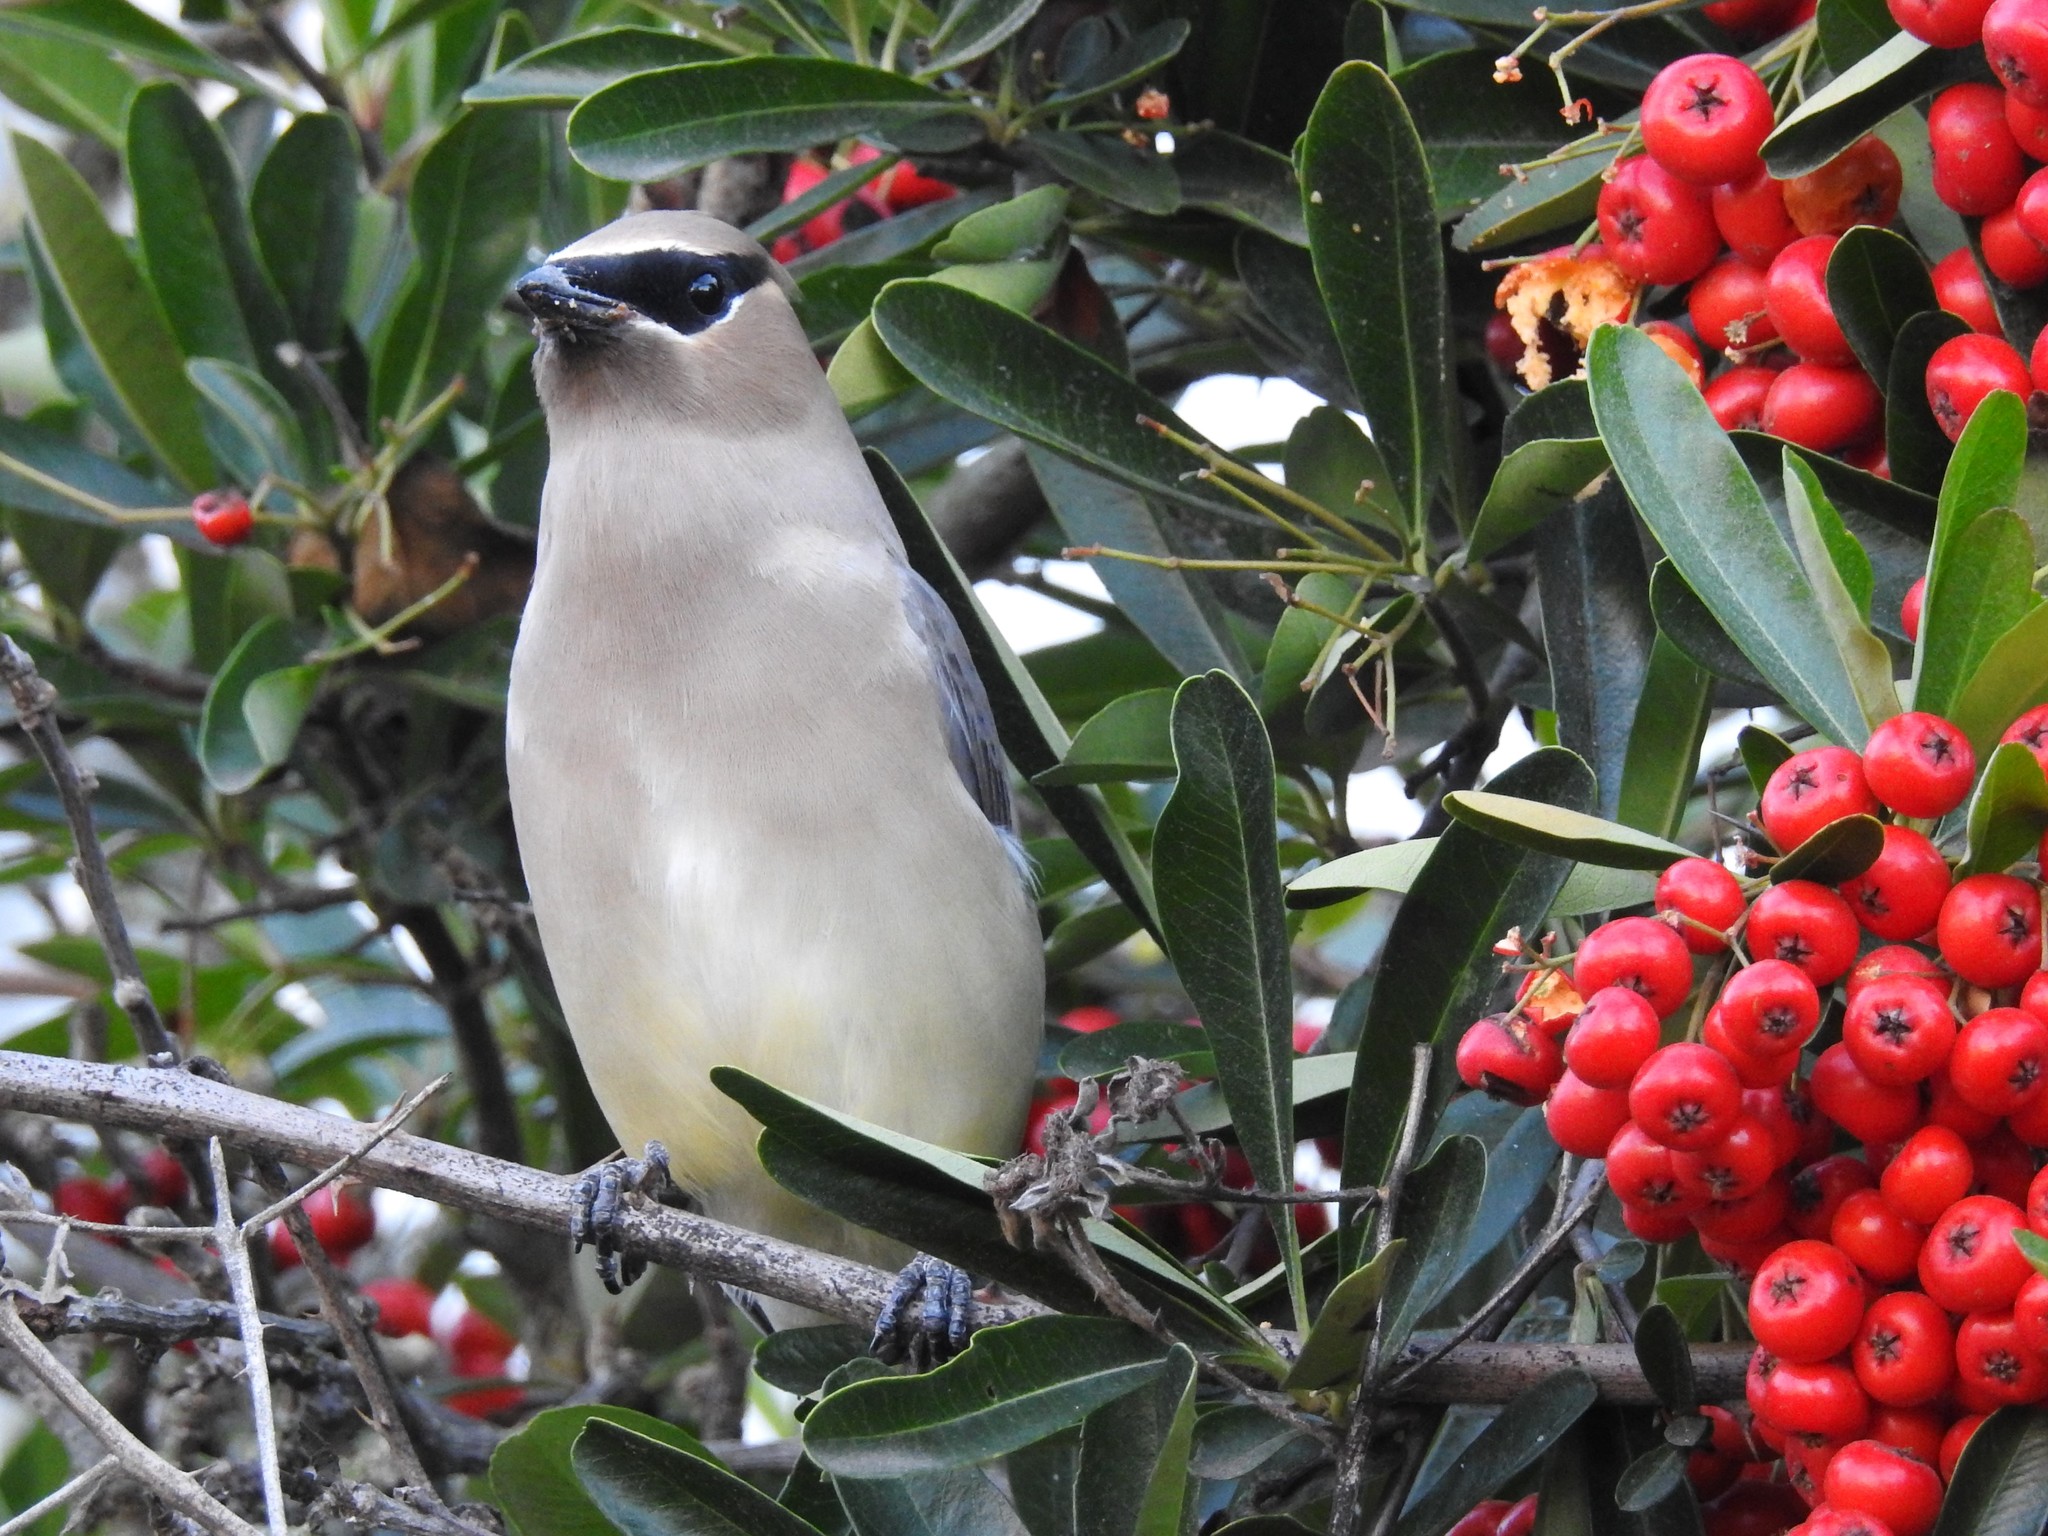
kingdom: Animalia
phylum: Chordata
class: Aves
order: Passeriformes
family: Bombycillidae
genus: Bombycilla
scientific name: Bombycilla cedrorum
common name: Cedar waxwing
